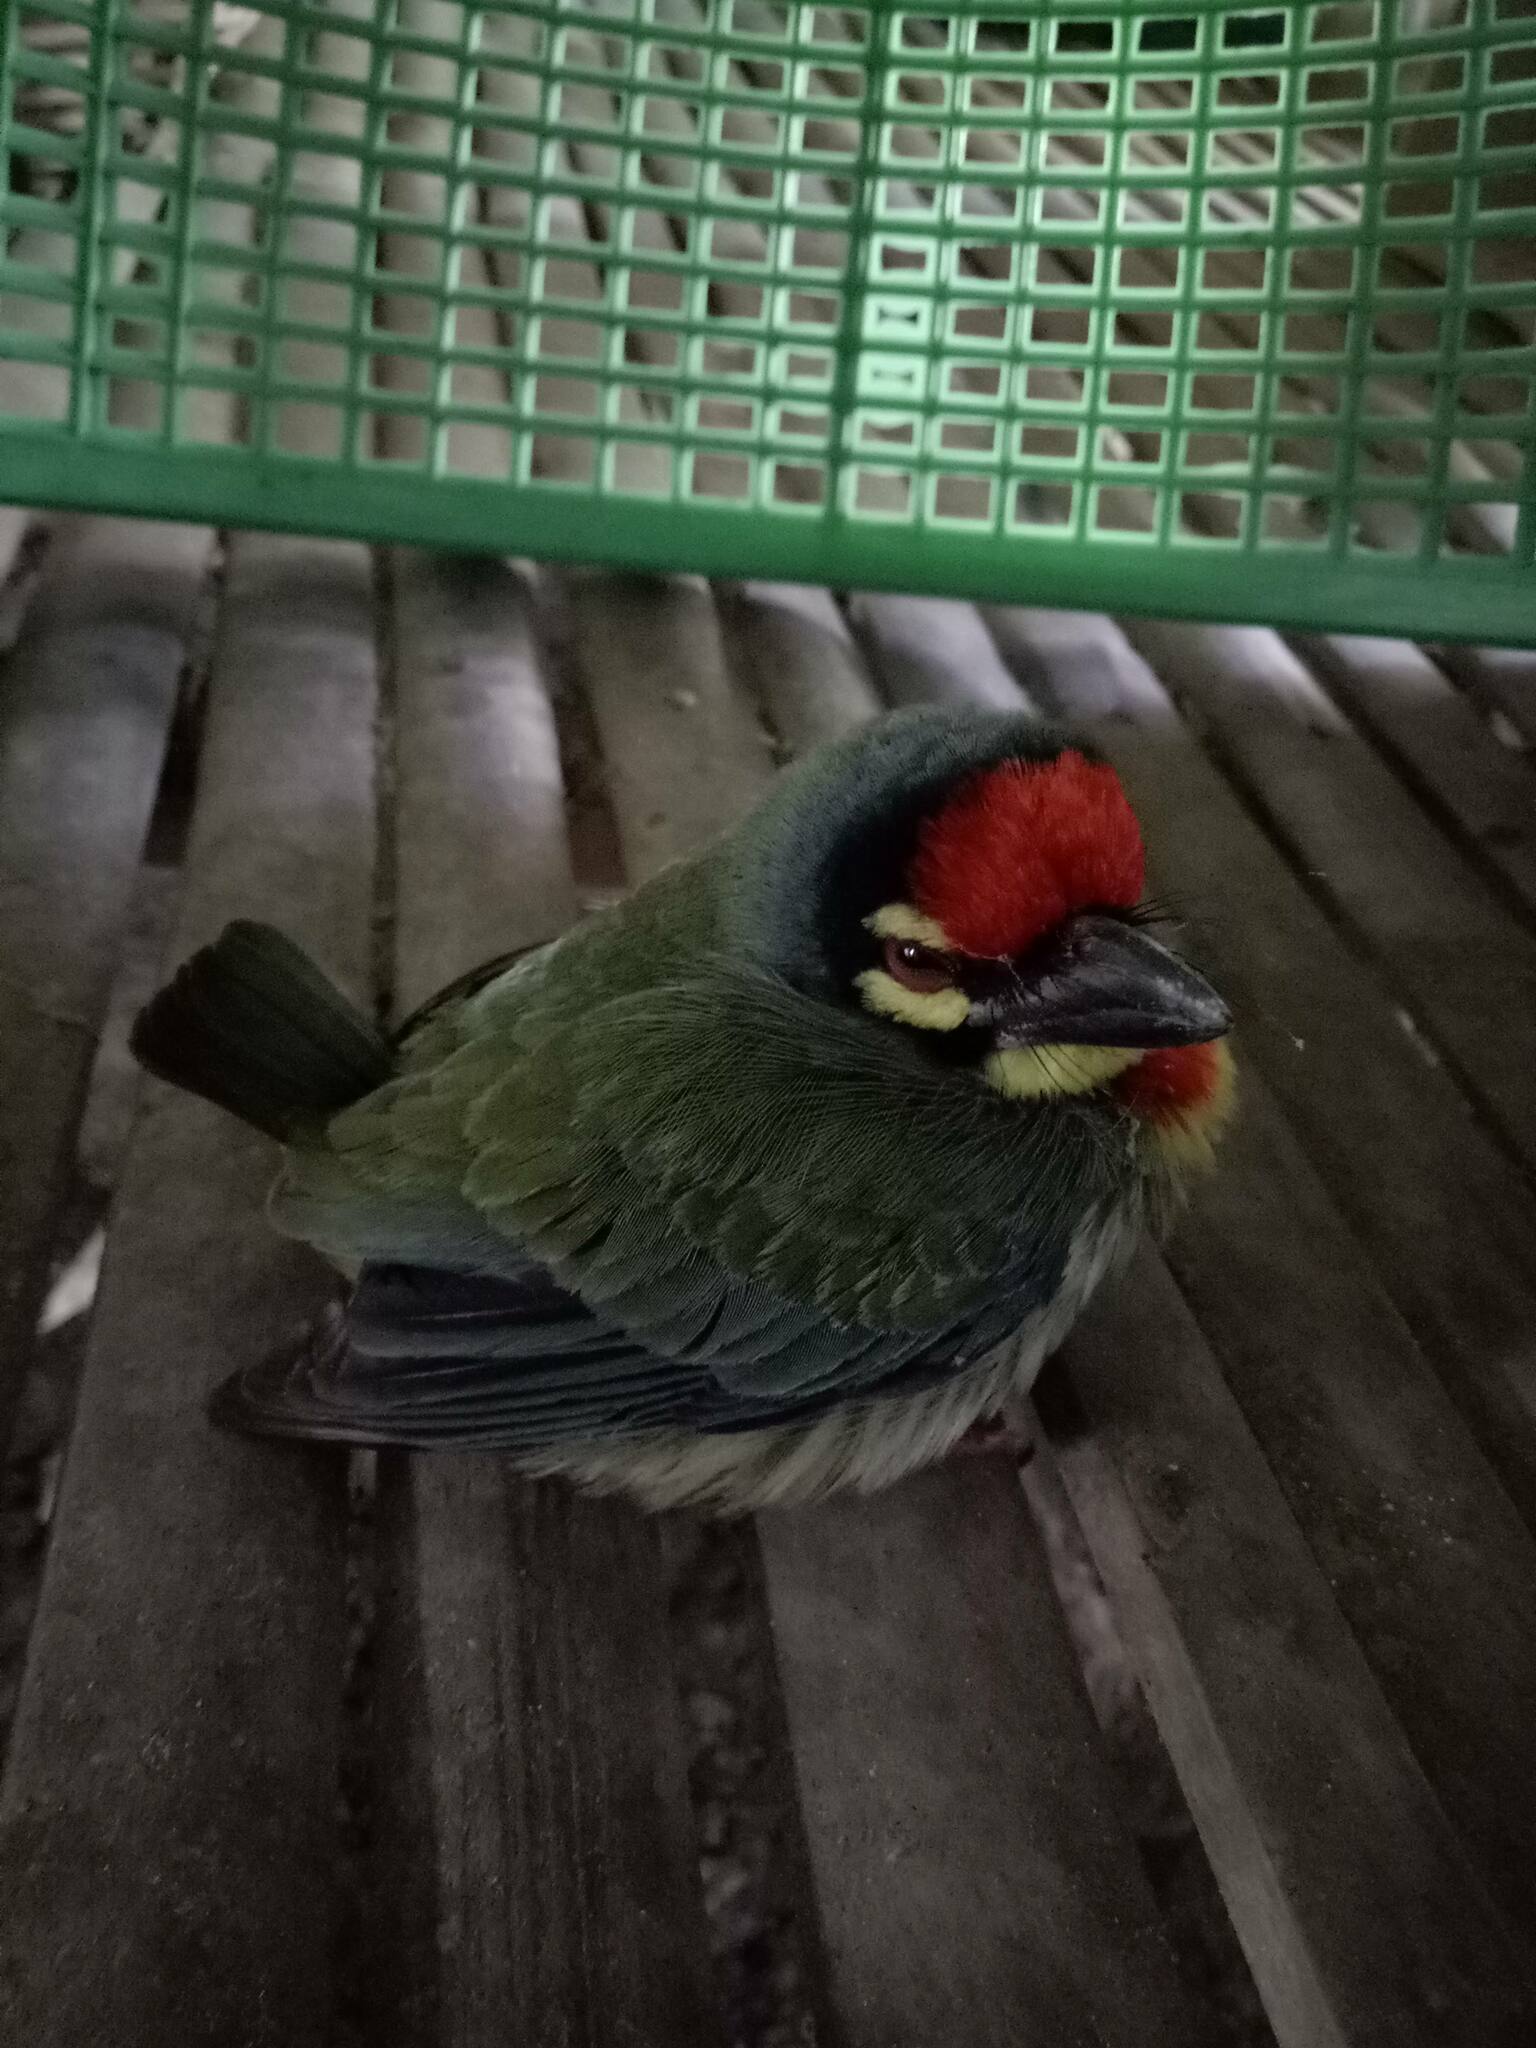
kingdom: Animalia
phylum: Chordata
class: Aves
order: Piciformes
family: Megalaimidae
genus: Psilopogon
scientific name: Psilopogon haemacephalus
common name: Coppersmith barbet
